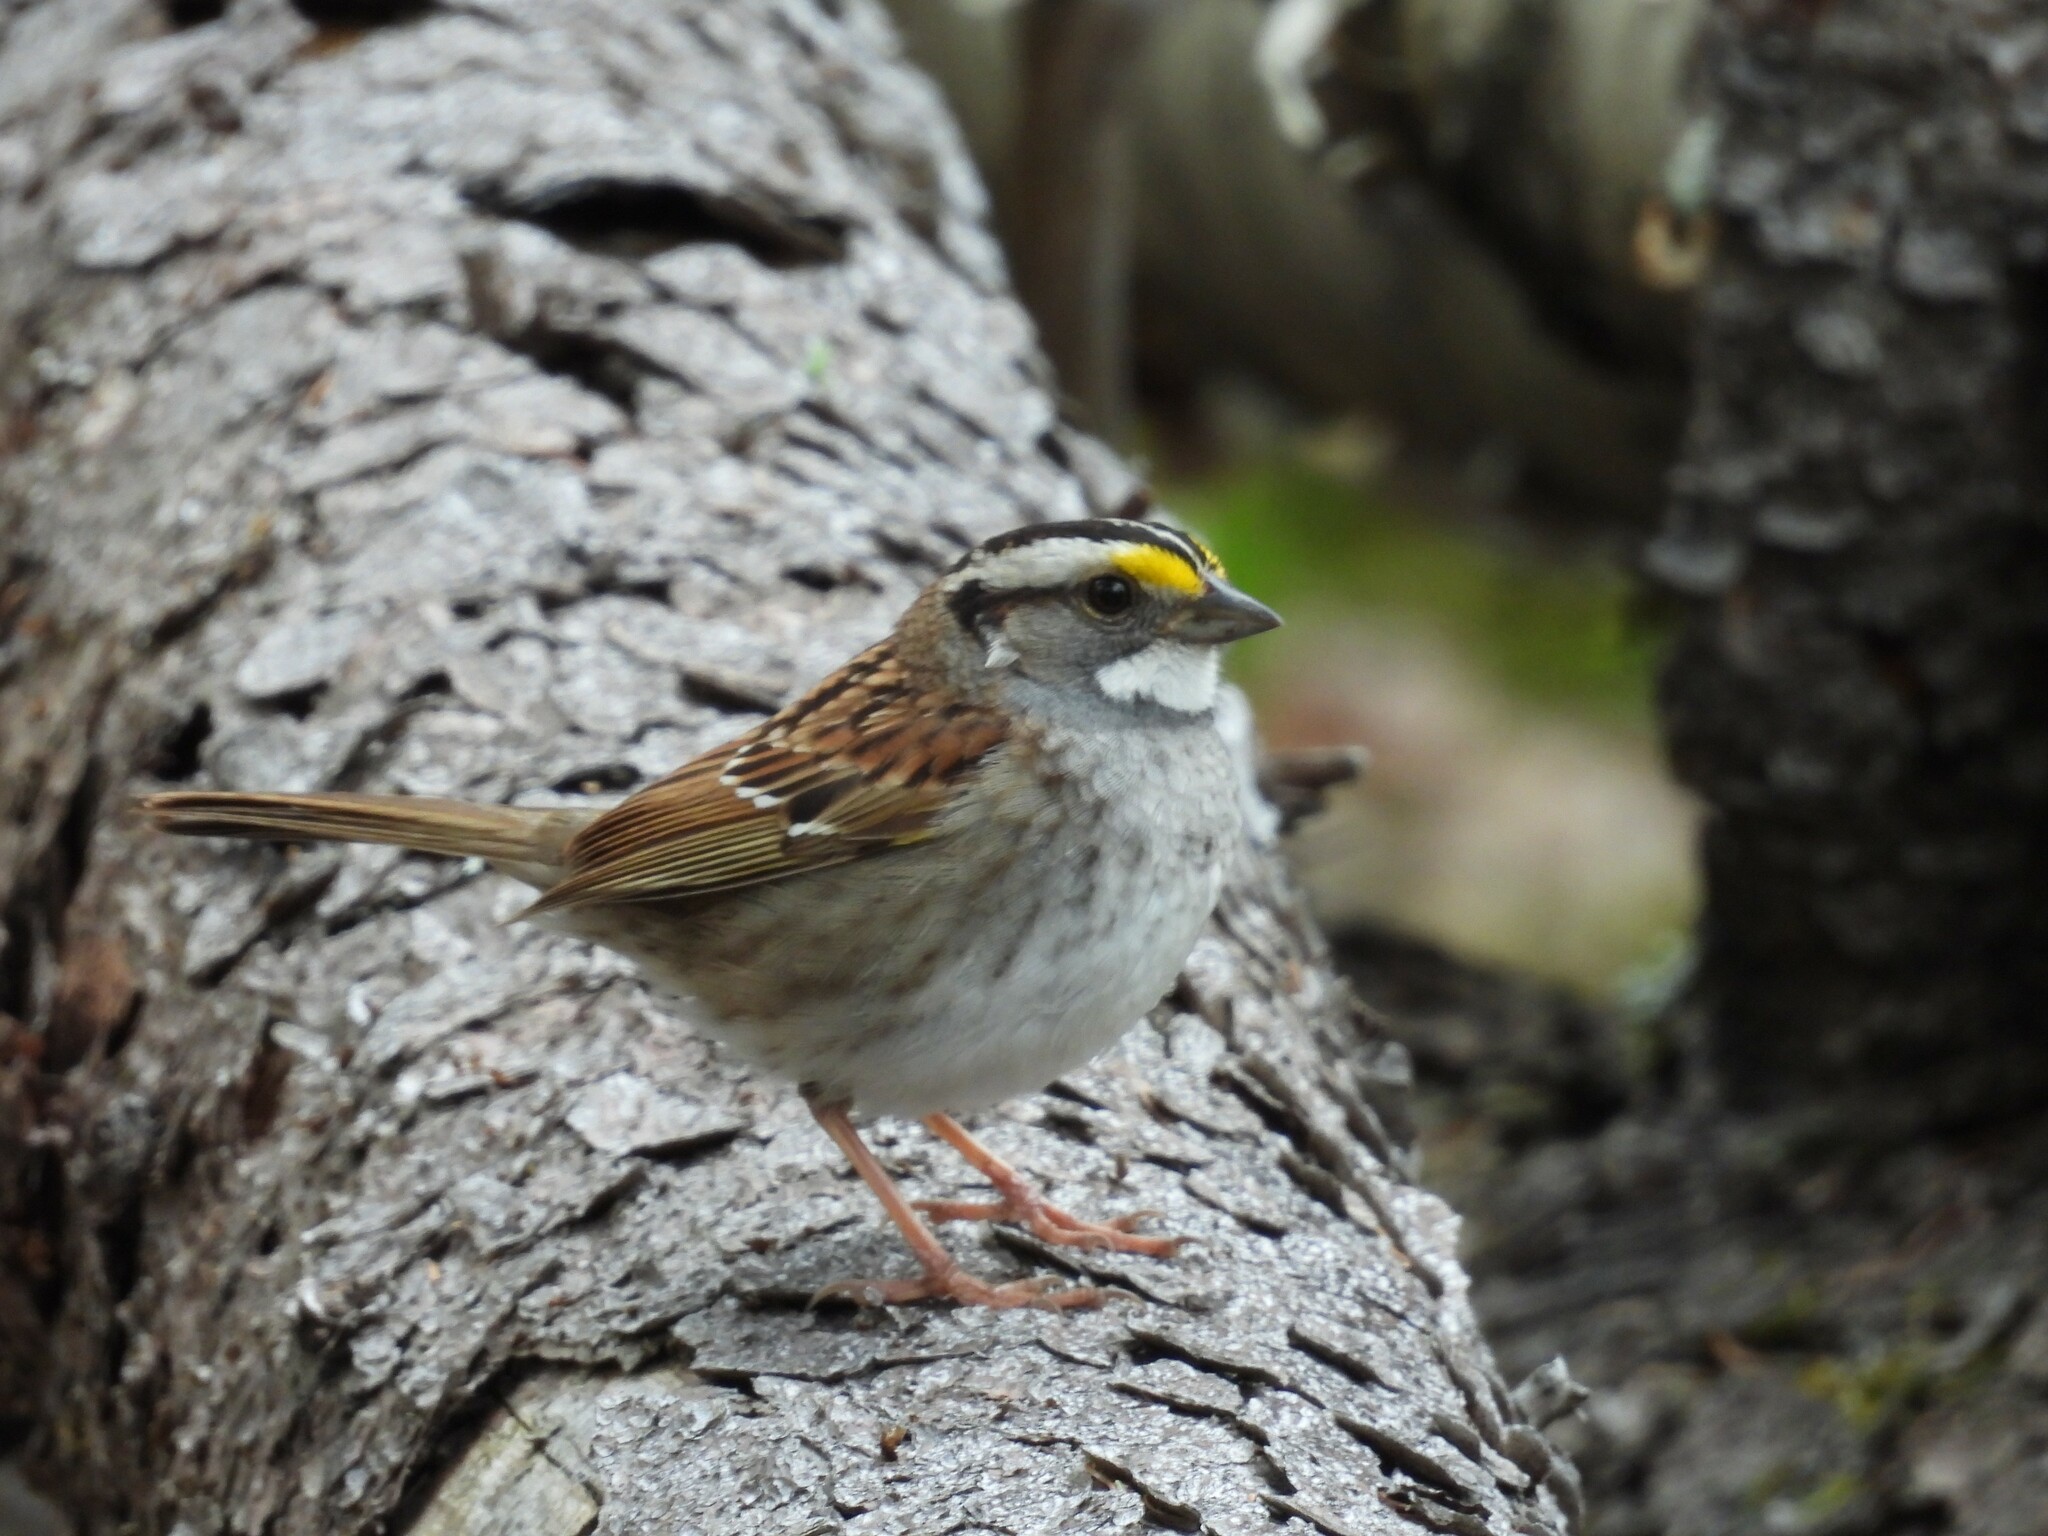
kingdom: Animalia
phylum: Chordata
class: Aves
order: Passeriformes
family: Passerellidae
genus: Zonotrichia
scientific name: Zonotrichia albicollis
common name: White-throated sparrow
